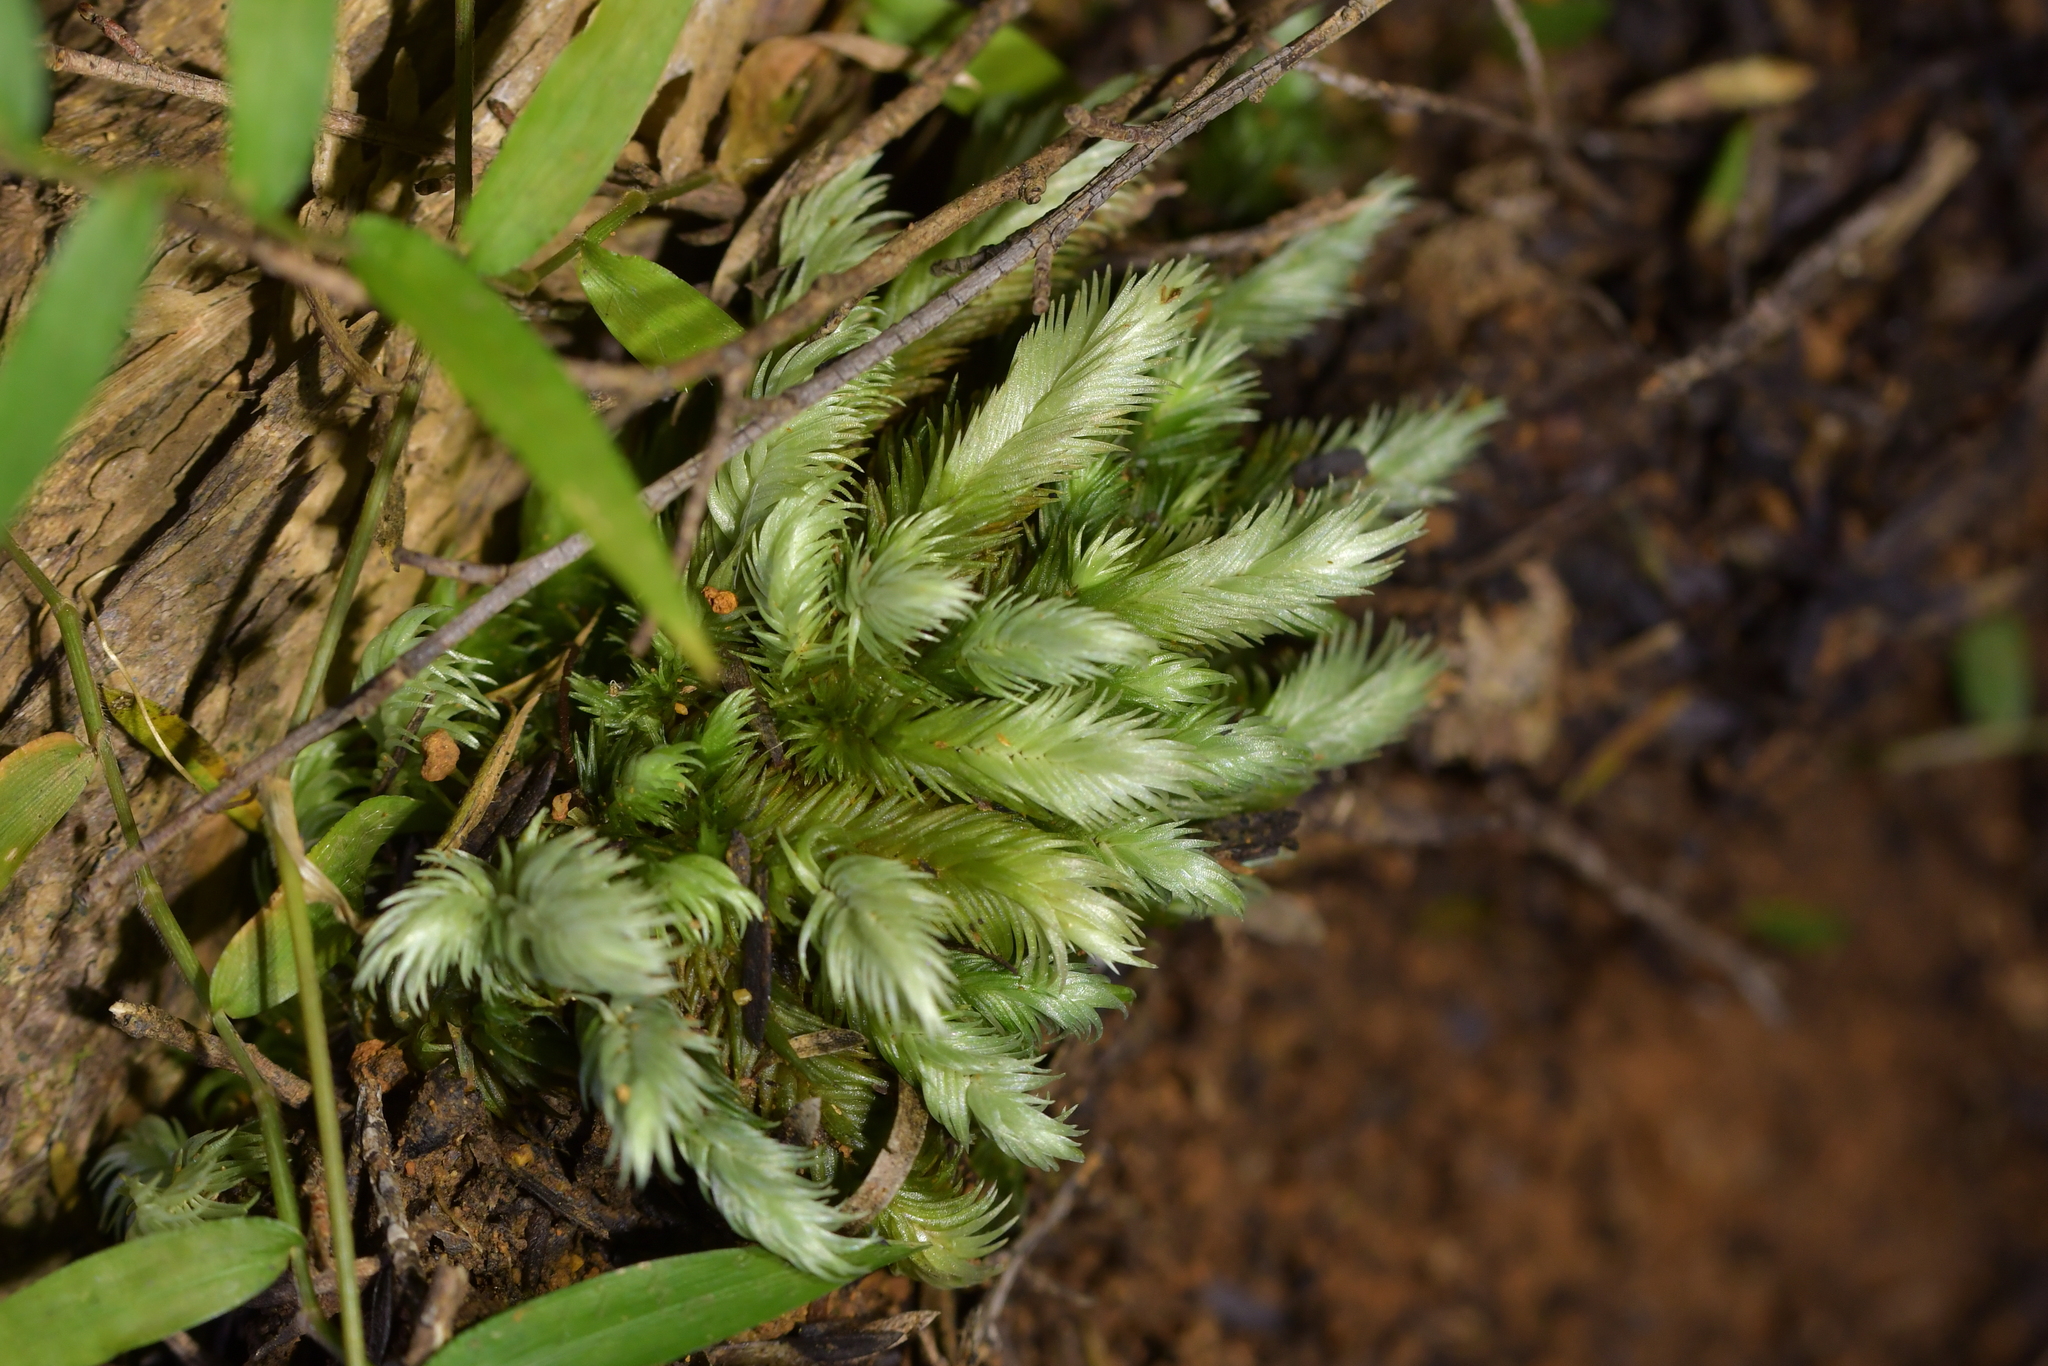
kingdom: Plantae
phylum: Bryophyta
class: Bryopsida
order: Dicranales
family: Leucobryaceae
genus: Leucobryum
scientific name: Leucobryum javense
